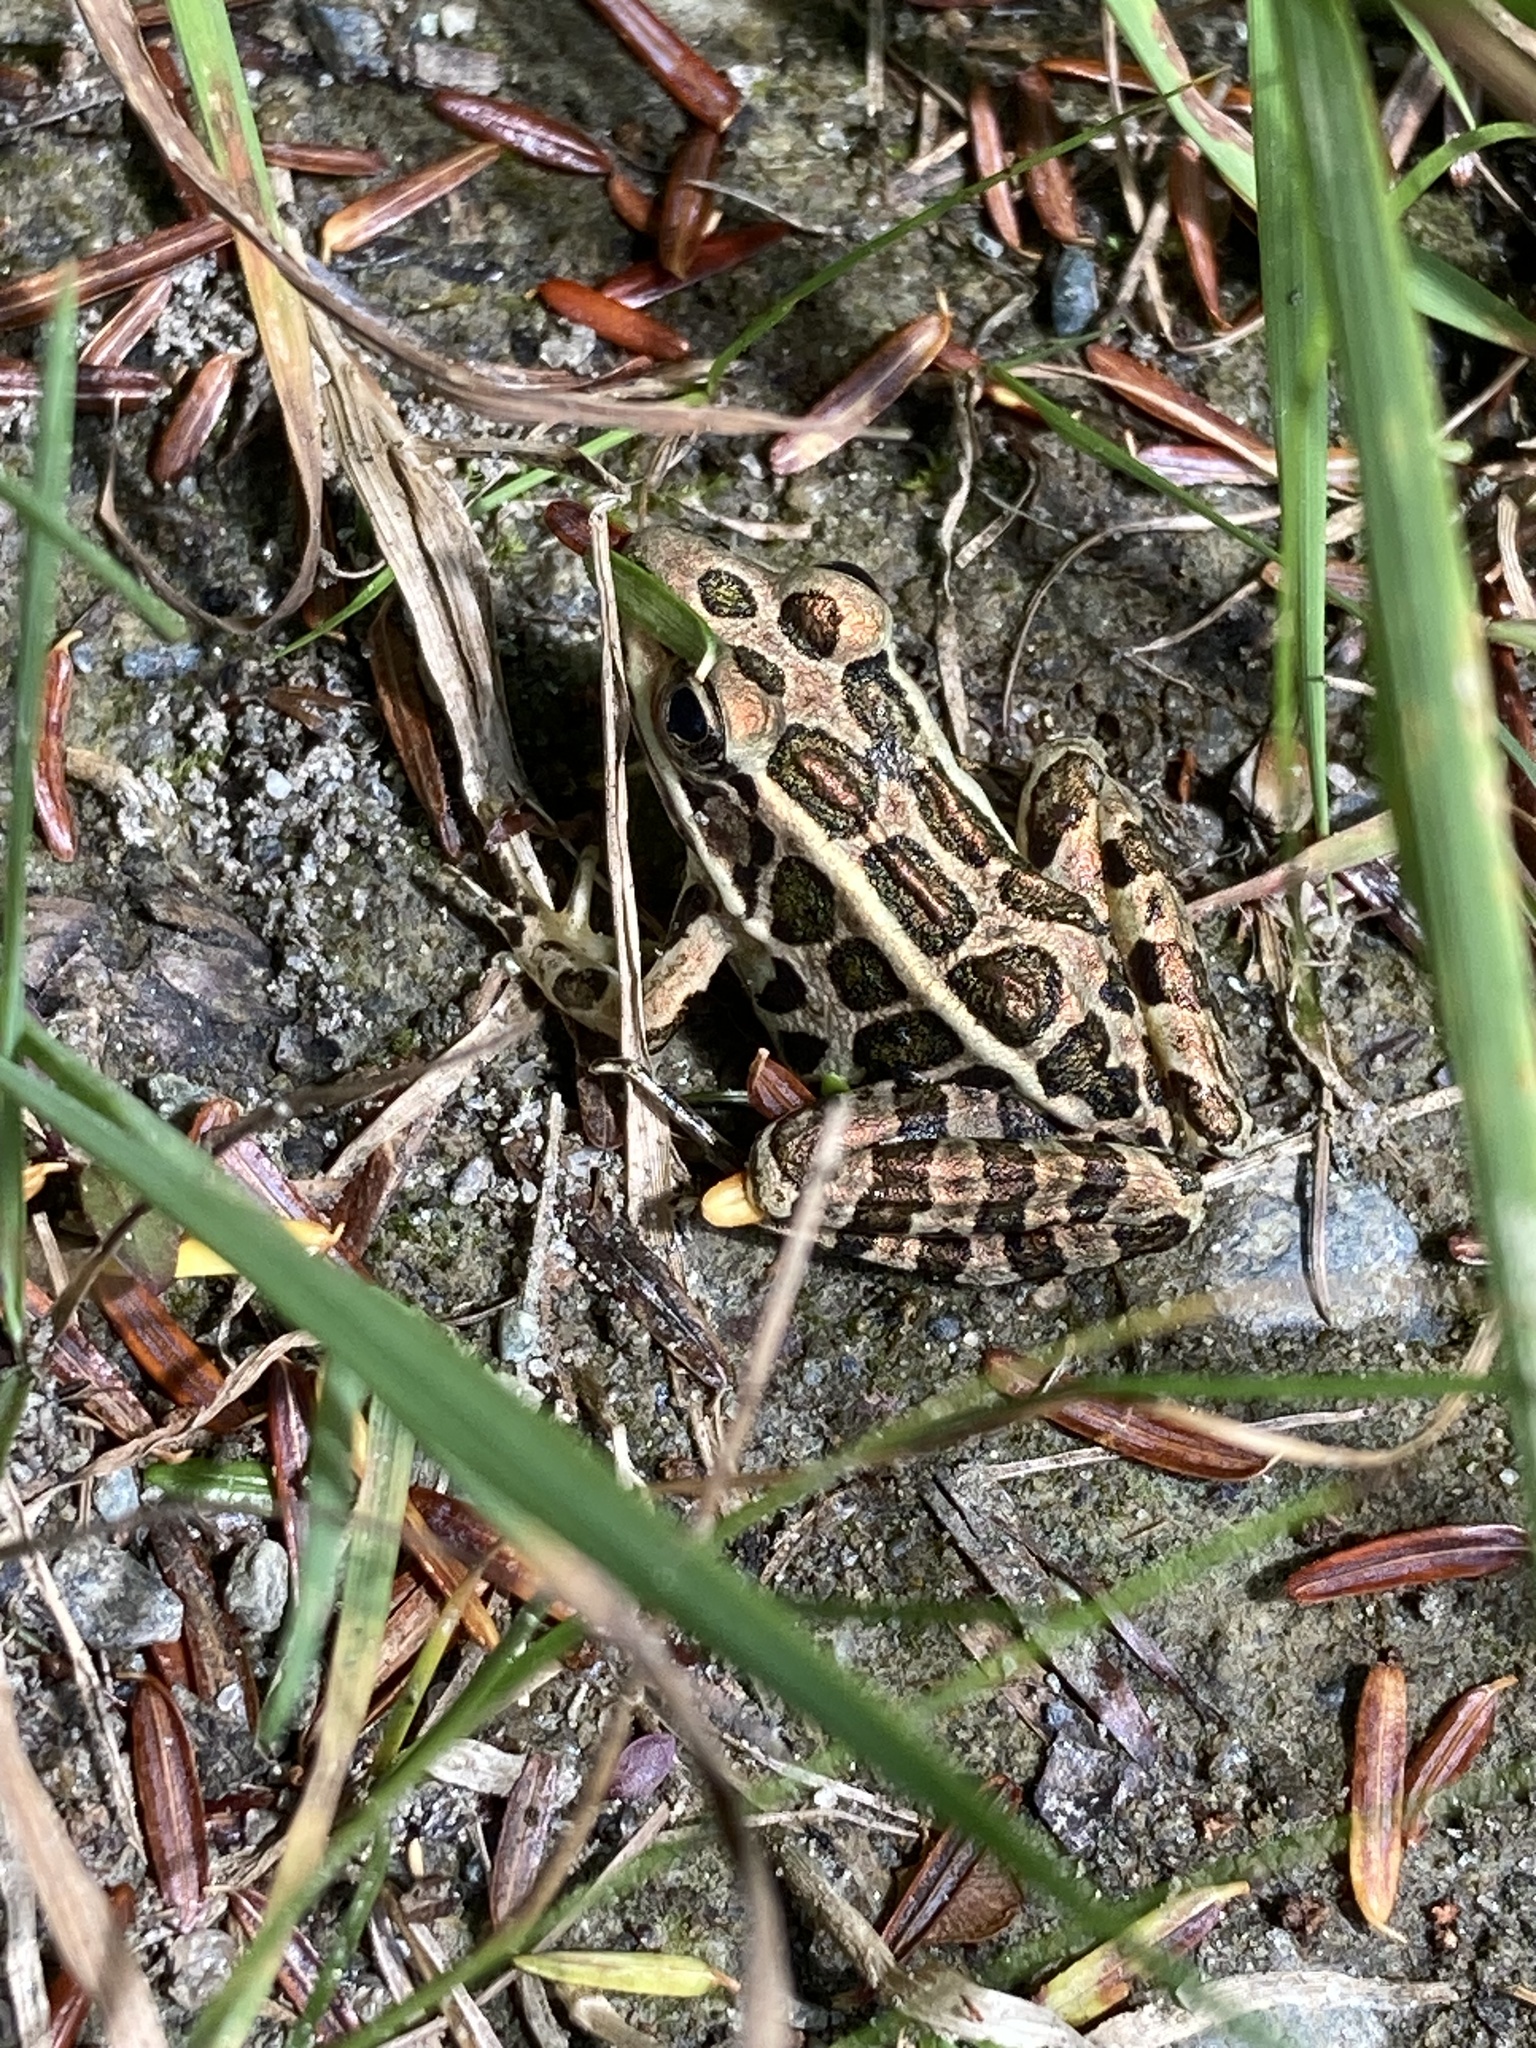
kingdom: Animalia
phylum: Chordata
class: Amphibia
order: Anura
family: Ranidae
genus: Lithobates
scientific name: Lithobates palustris
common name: Pickerel frog
